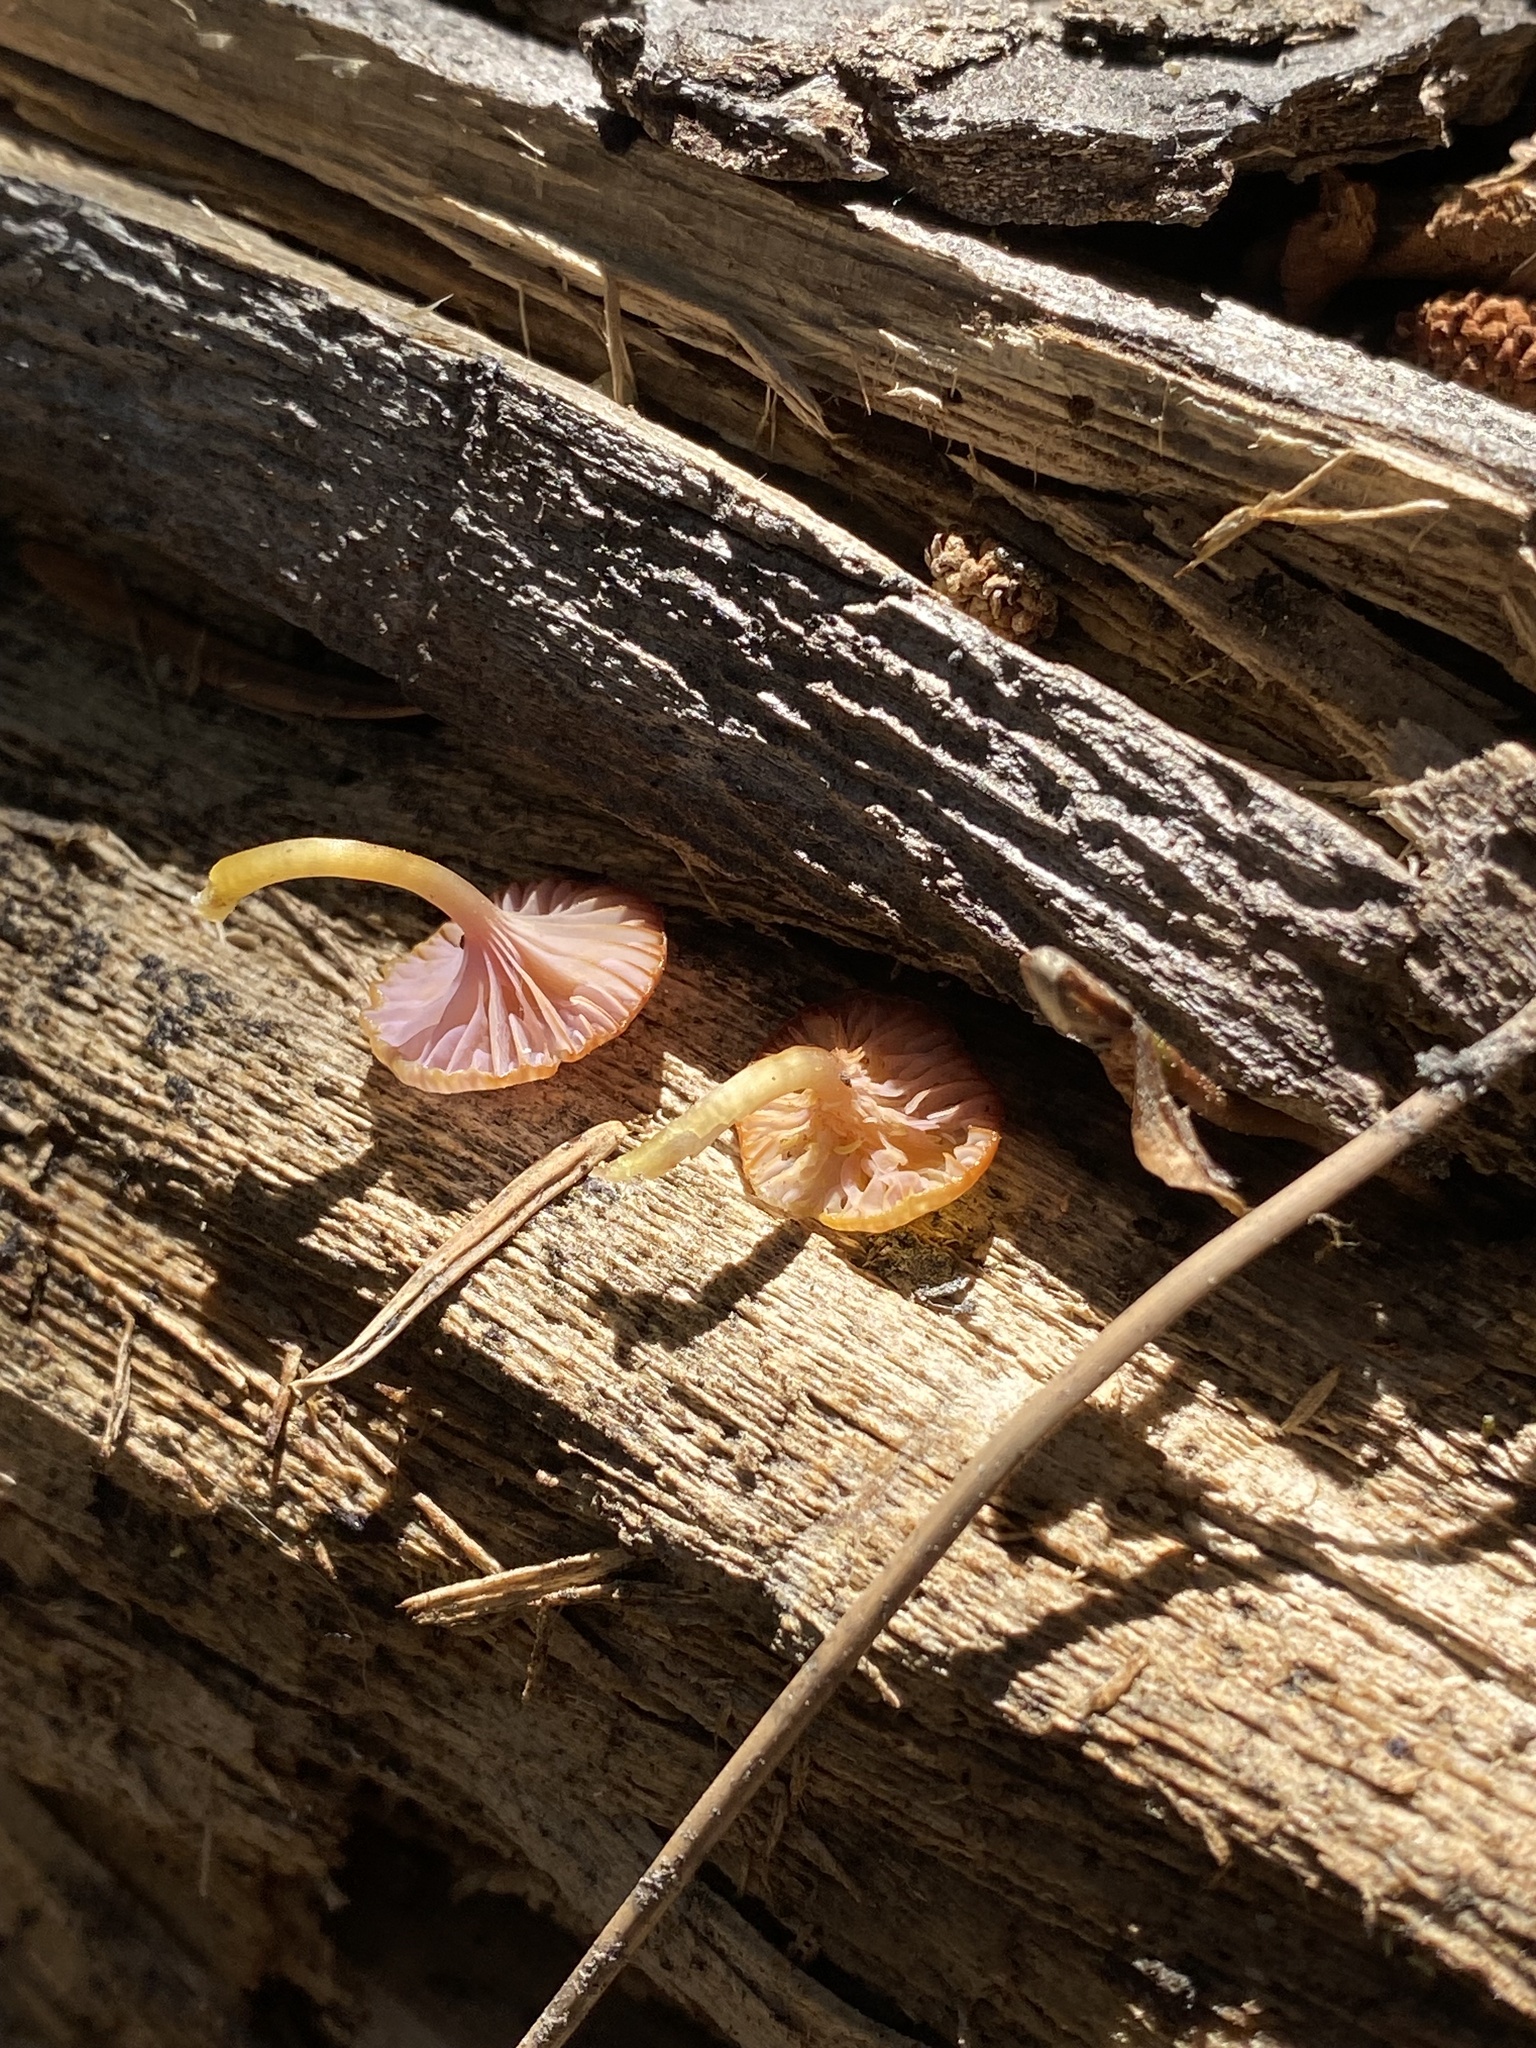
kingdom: Fungi
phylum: Basidiomycota
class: Agaricomycetes
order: Agaricales
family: Hygrophoraceae
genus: Chromosera
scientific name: Chromosera cyanophylla
